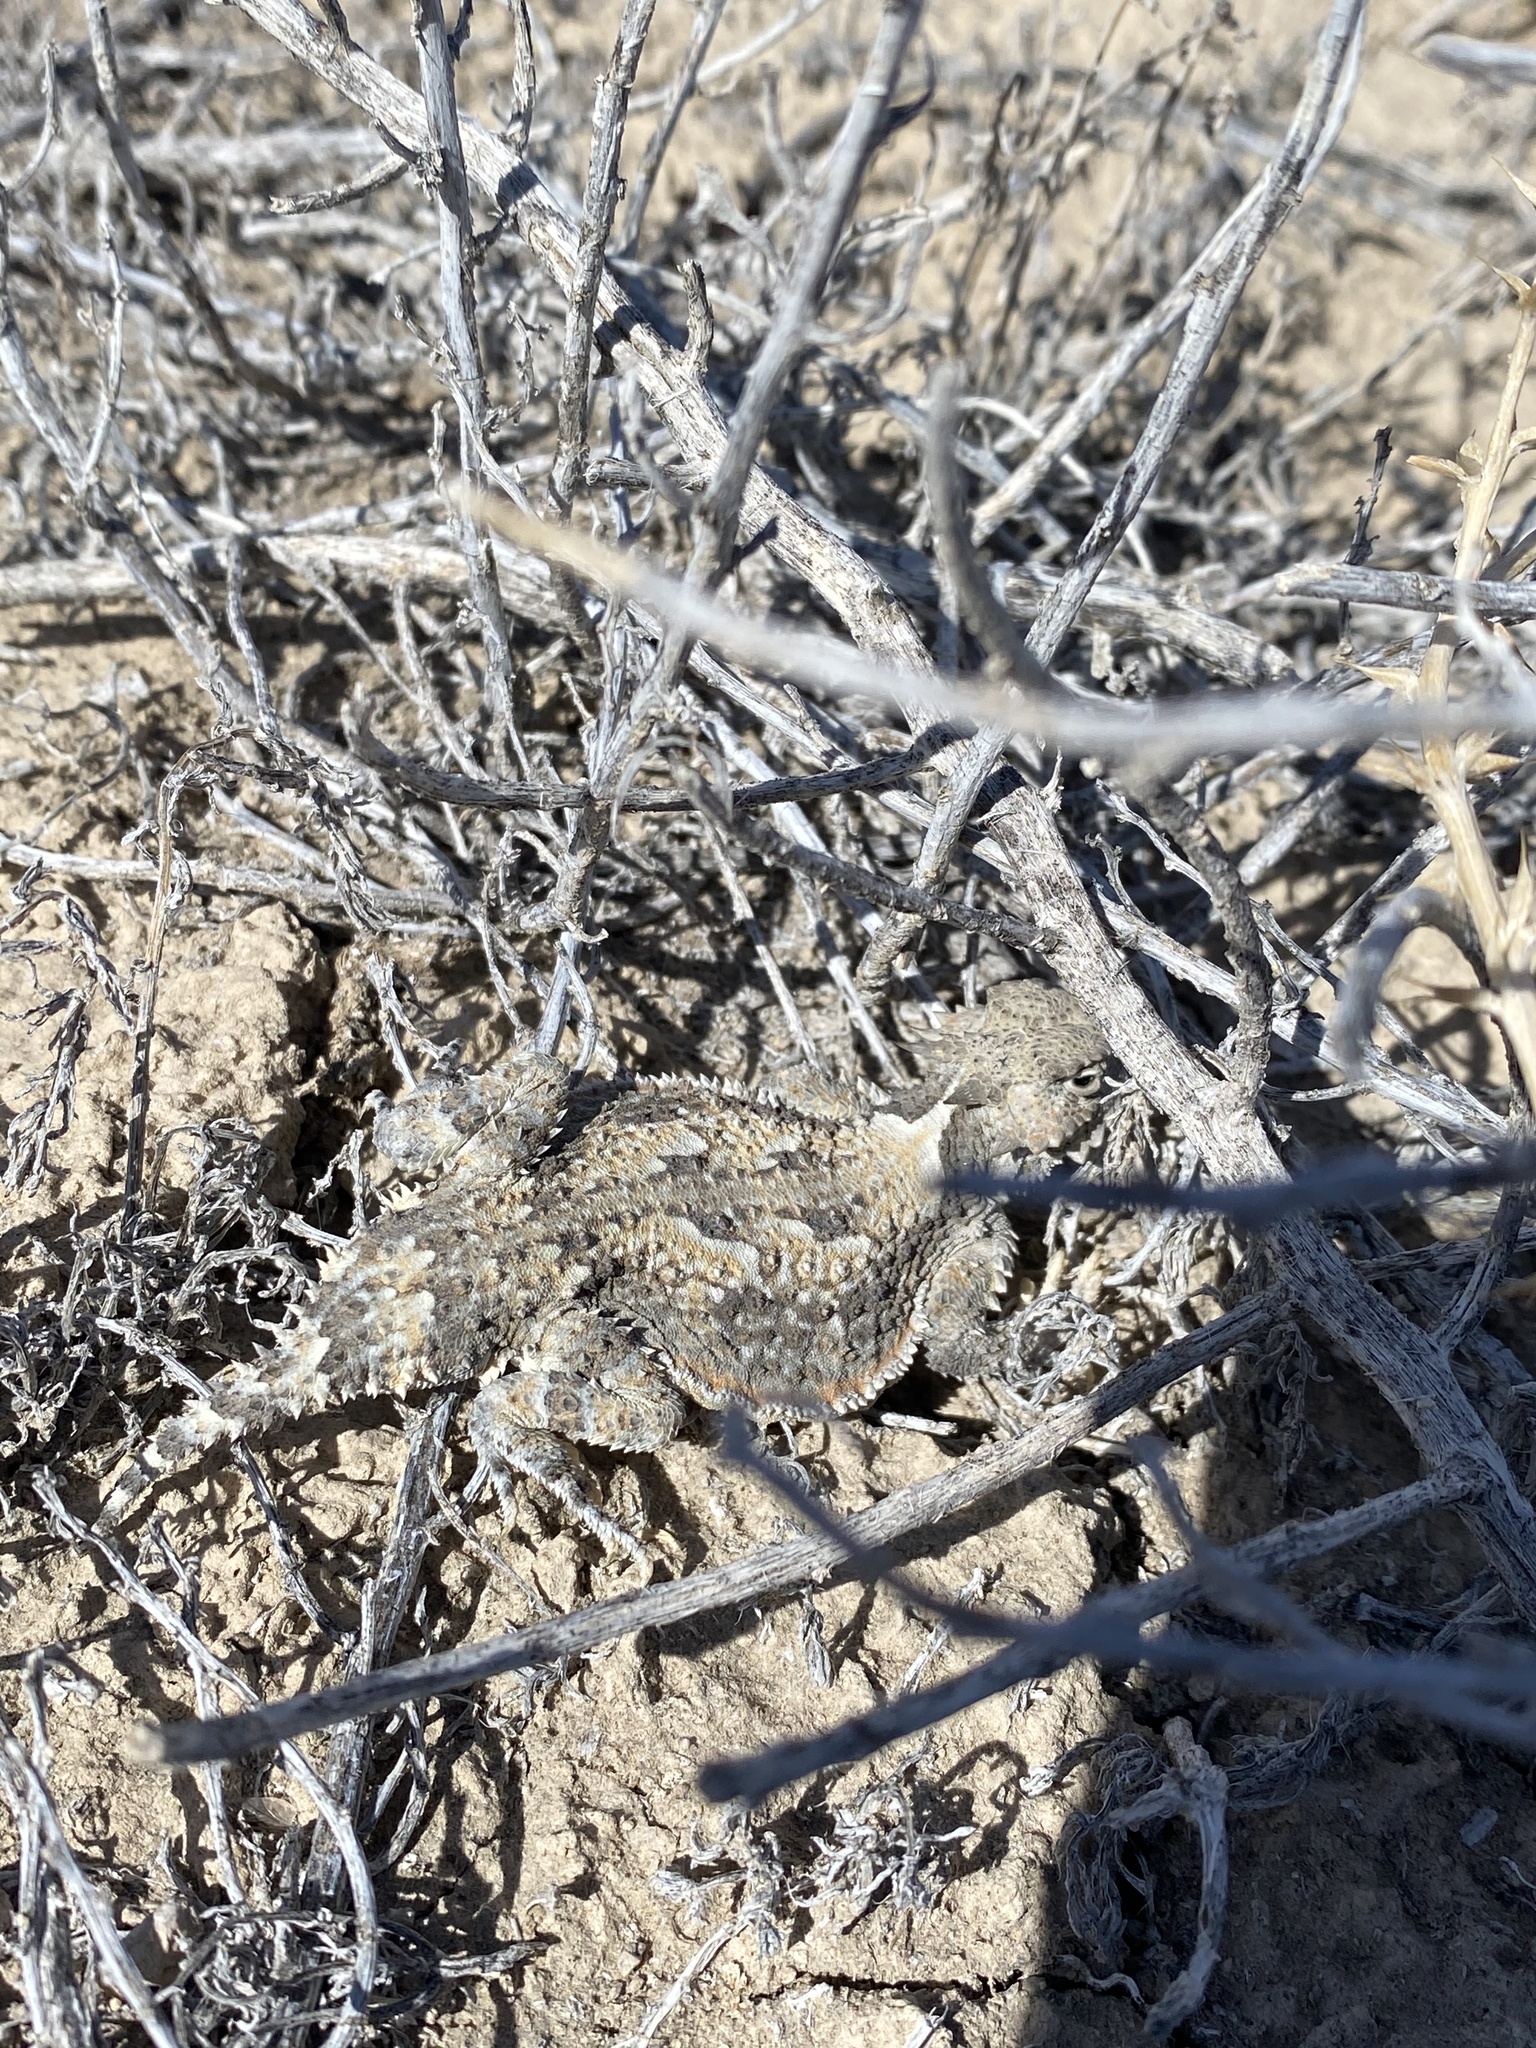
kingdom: Animalia
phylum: Chordata
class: Squamata
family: Phrynosomatidae
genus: Phrynosoma
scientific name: Phrynosoma platyrhinos
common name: Desert horned lizard
